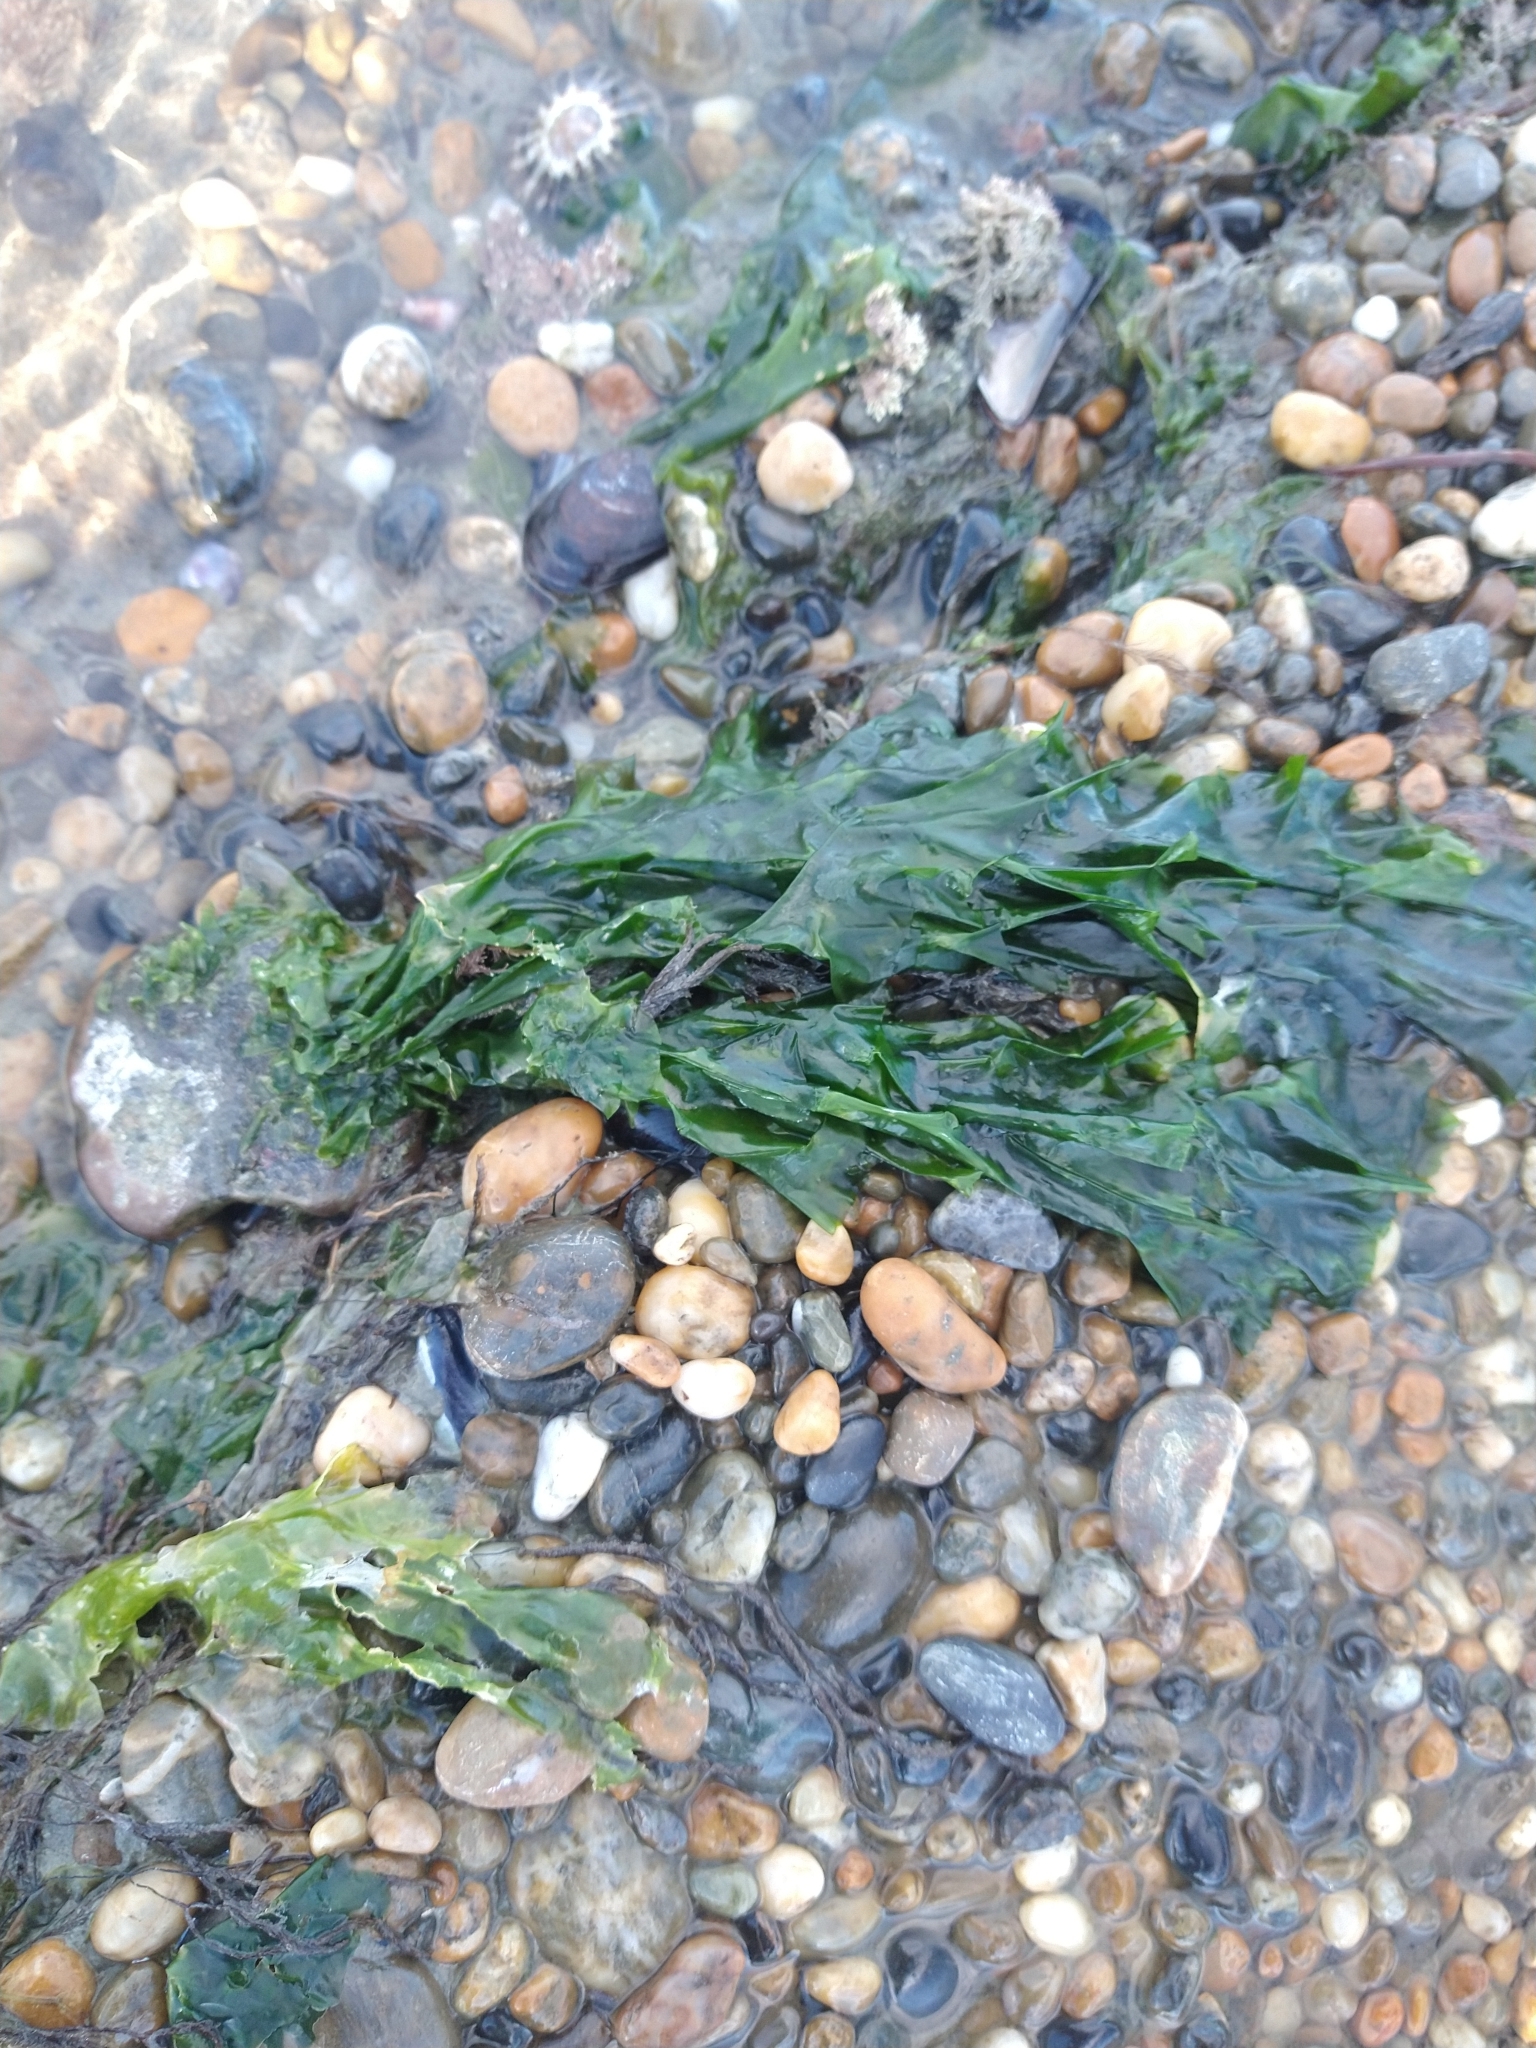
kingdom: Plantae
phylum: Chlorophyta
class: Ulvophyceae
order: Ulvales
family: Ulvaceae
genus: Ulva
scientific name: Ulva lactuca
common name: Sea lettuce
